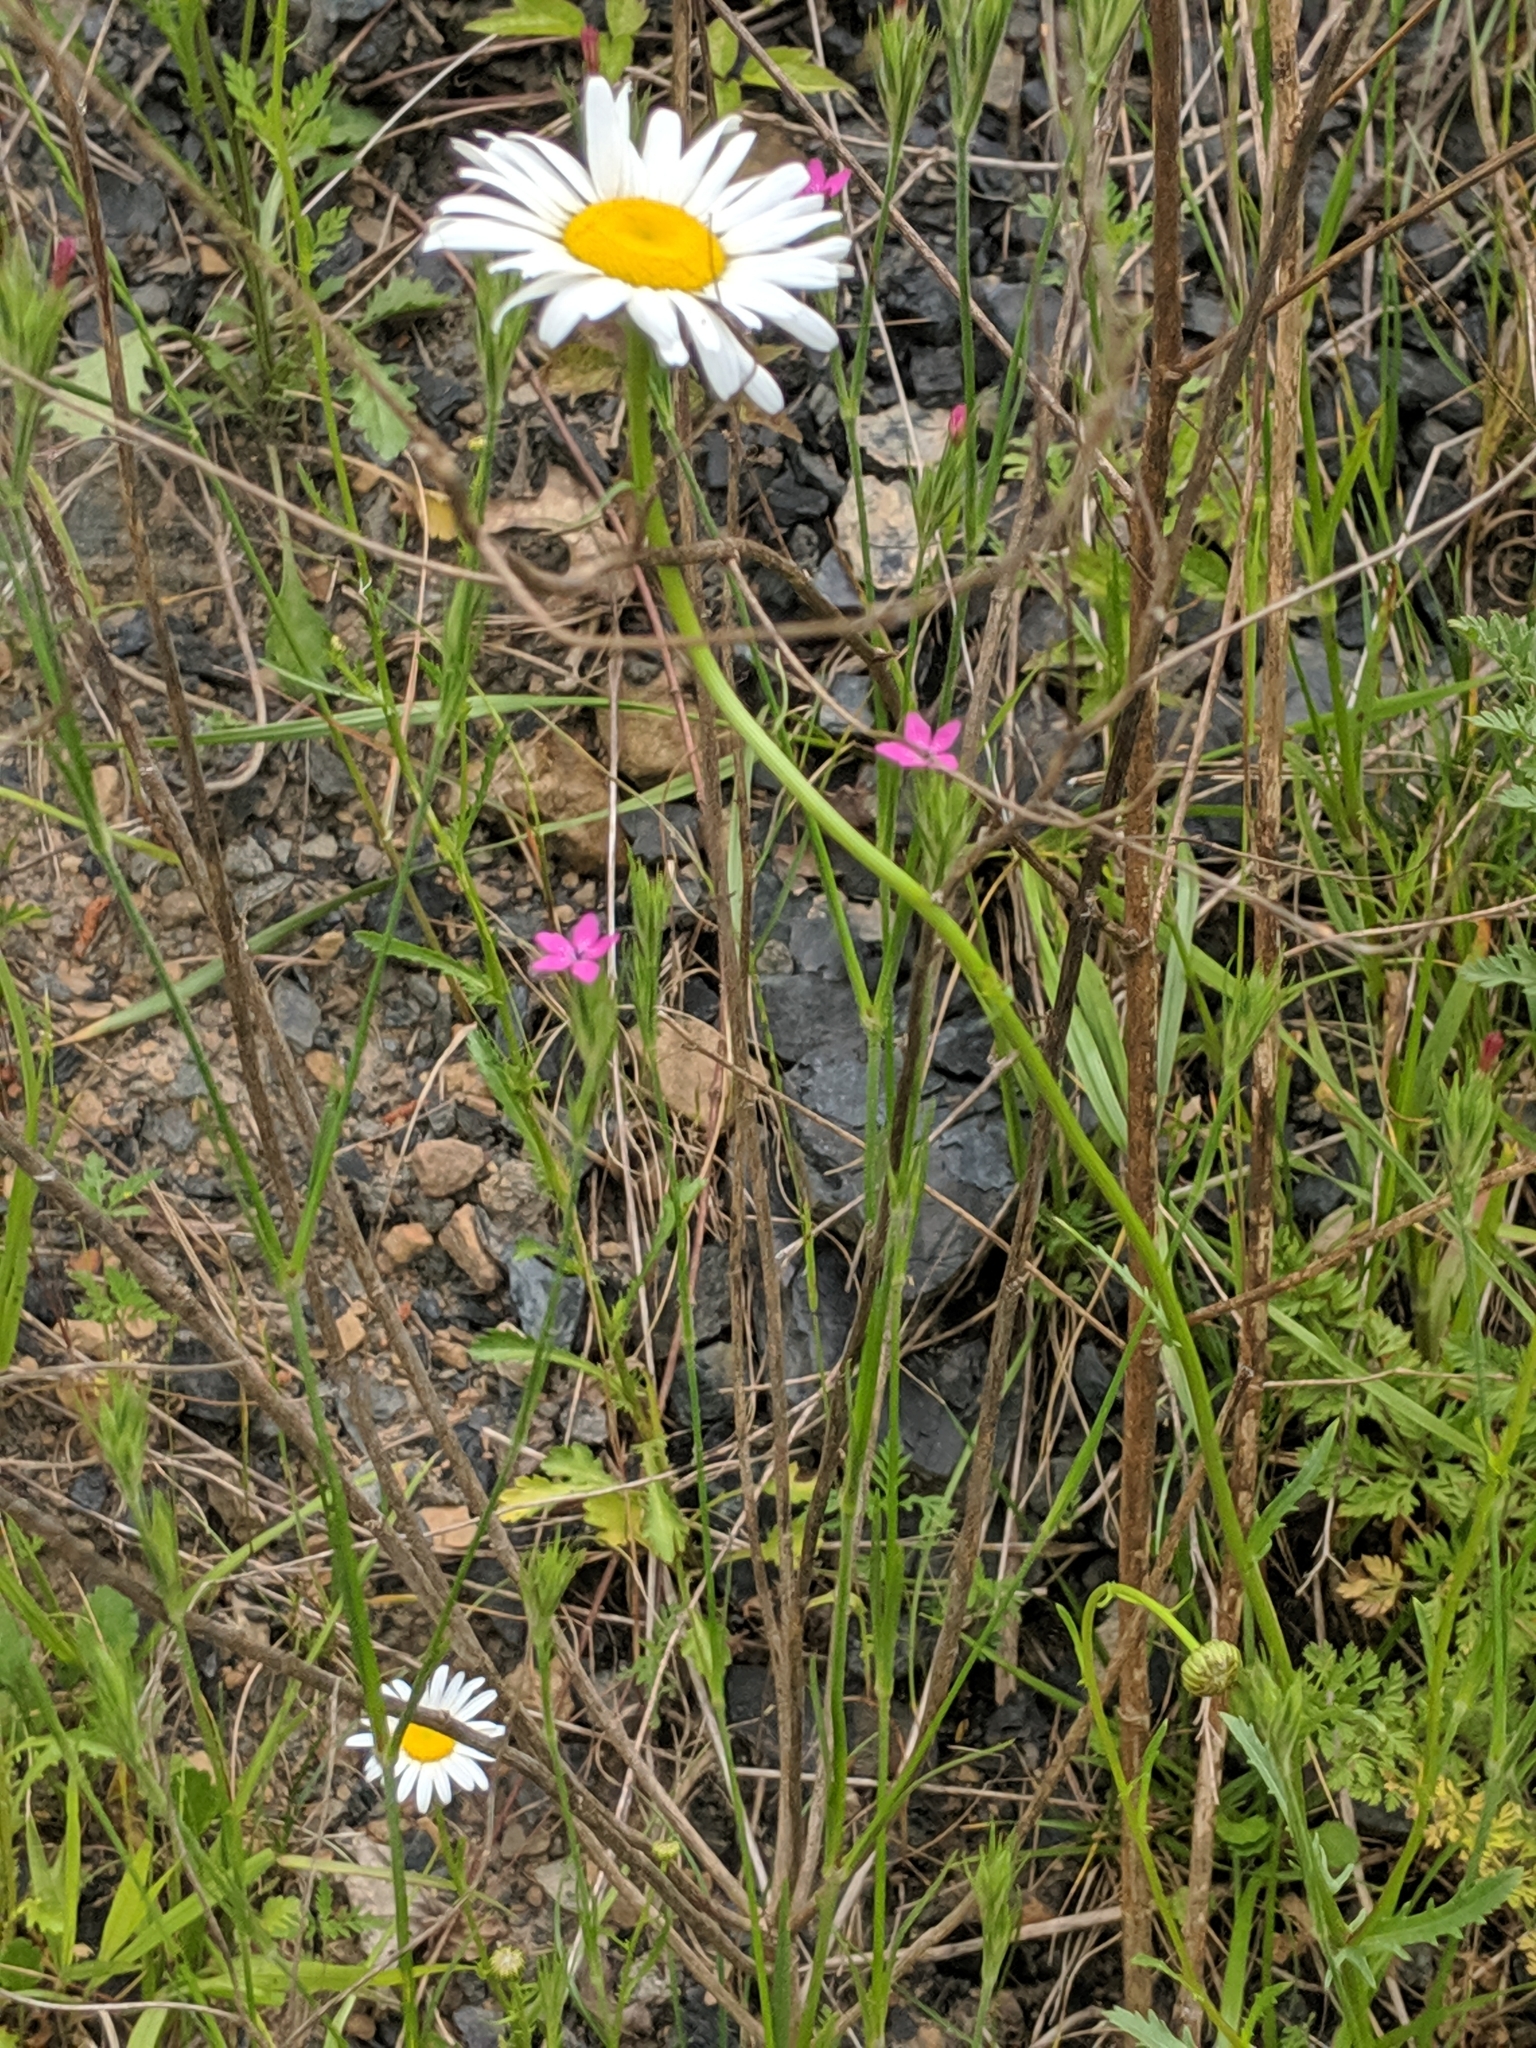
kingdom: Plantae
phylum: Tracheophyta
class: Magnoliopsida
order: Caryophyllales
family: Caryophyllaceae
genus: Dianthus
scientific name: Dianthus armeria
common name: Deptford pink
